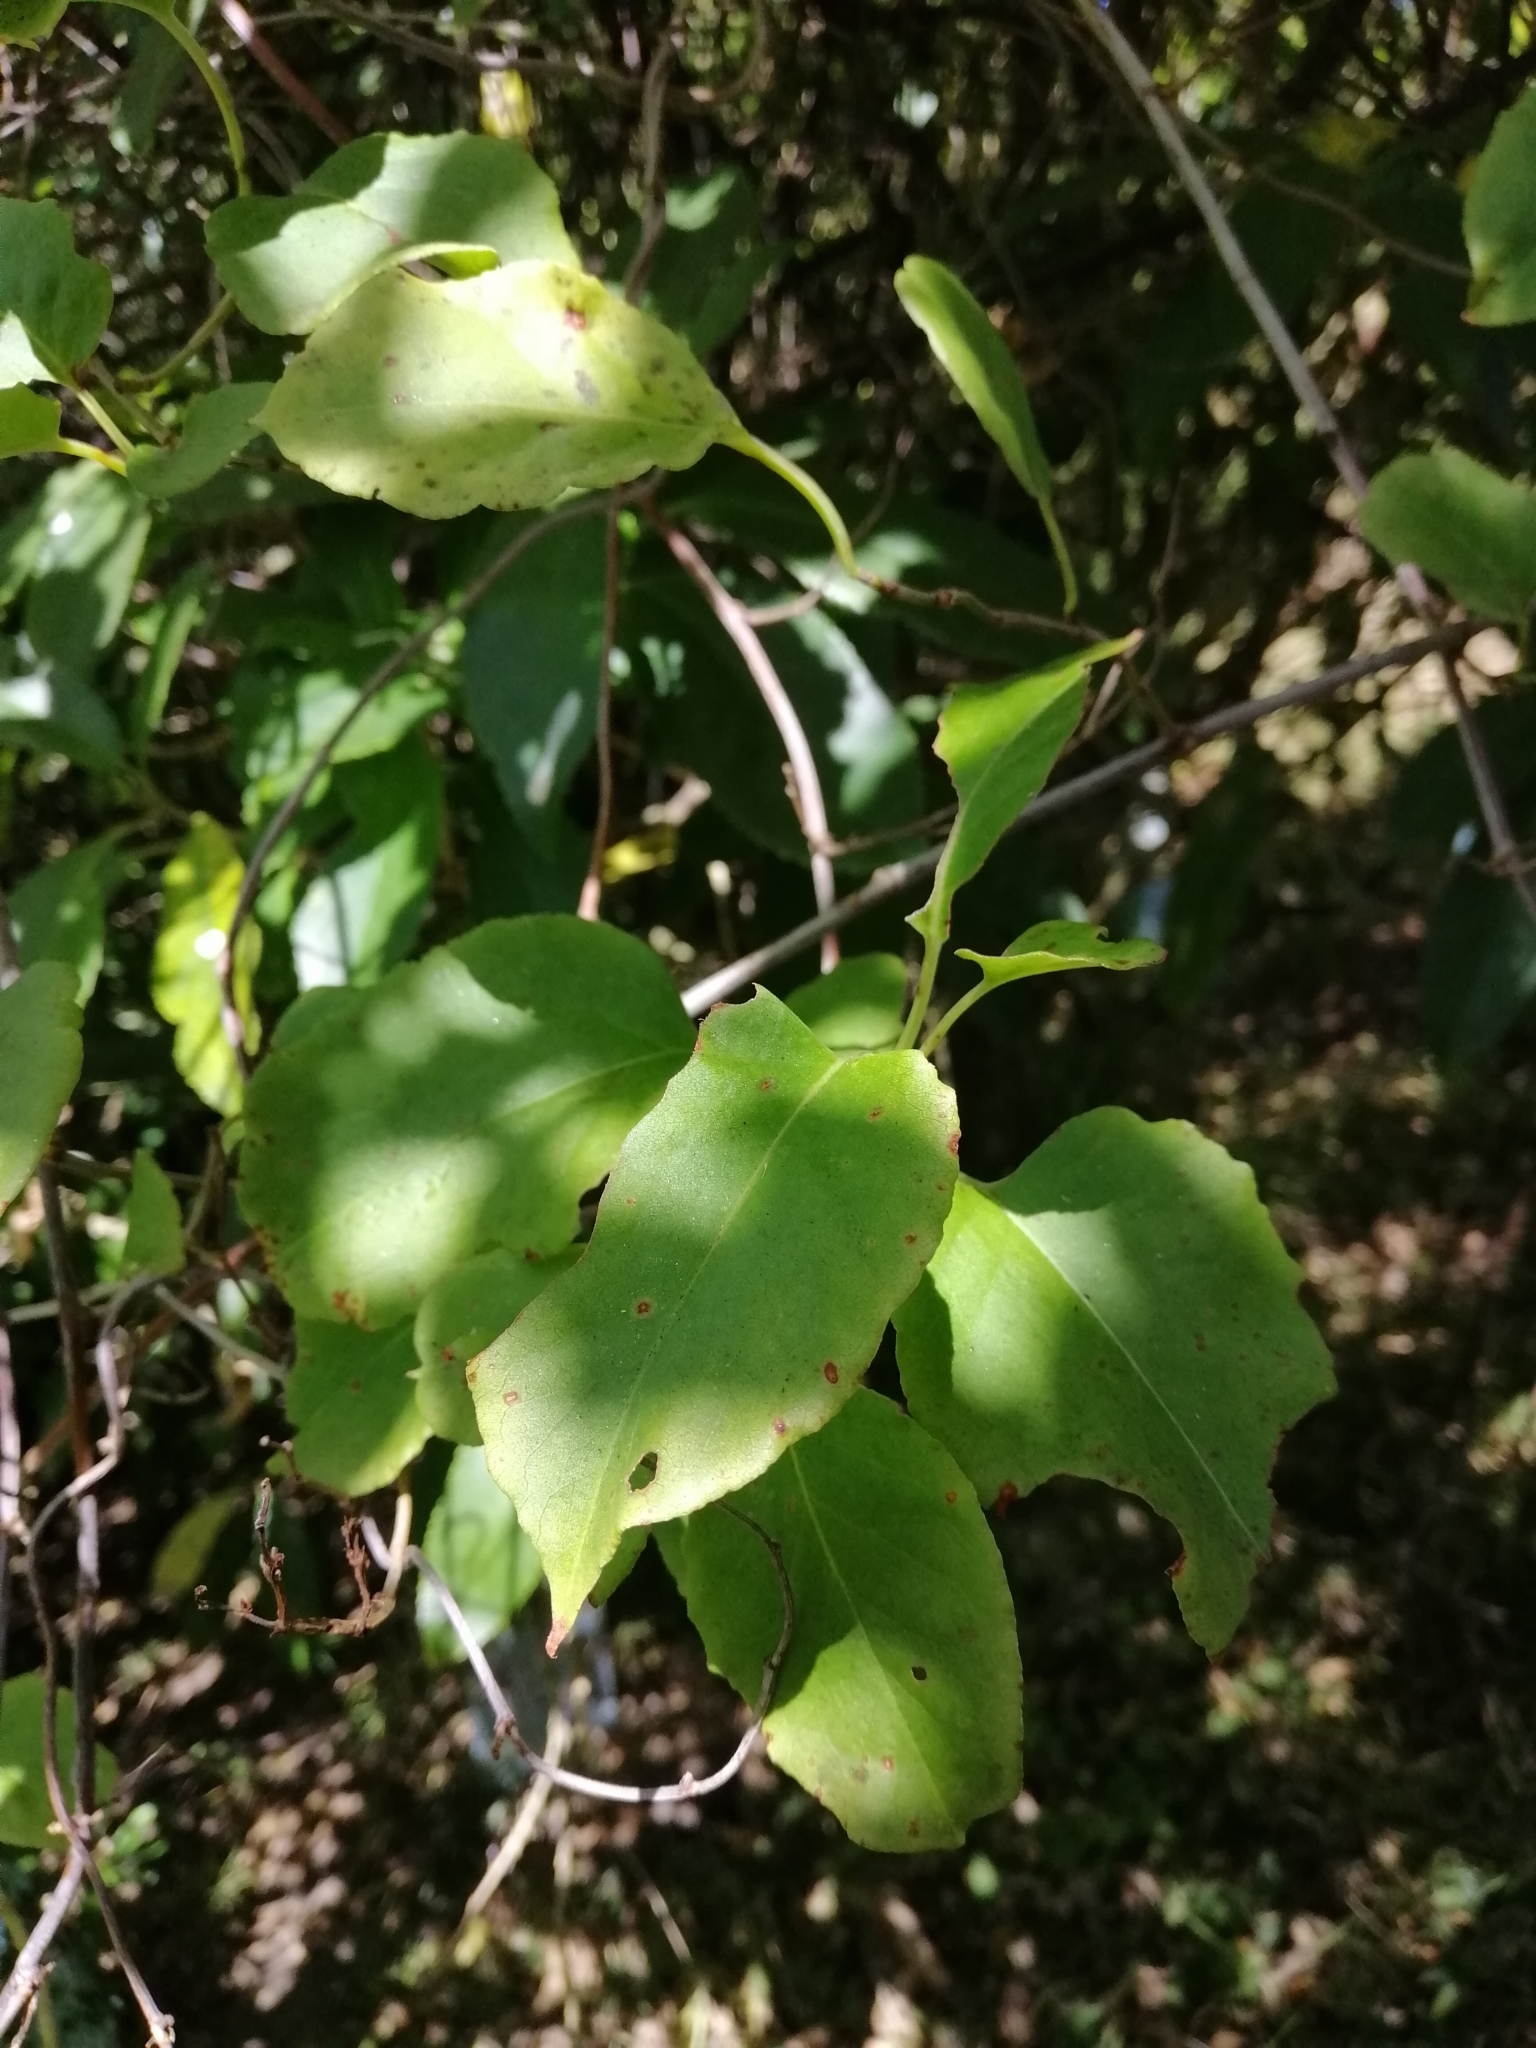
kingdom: Plantae
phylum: Tracheophyta
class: Magnoliopsida
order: Caryophyllales
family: Polygonaceae
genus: Muehlenbeckia
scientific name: Muehlenbeckia australis
